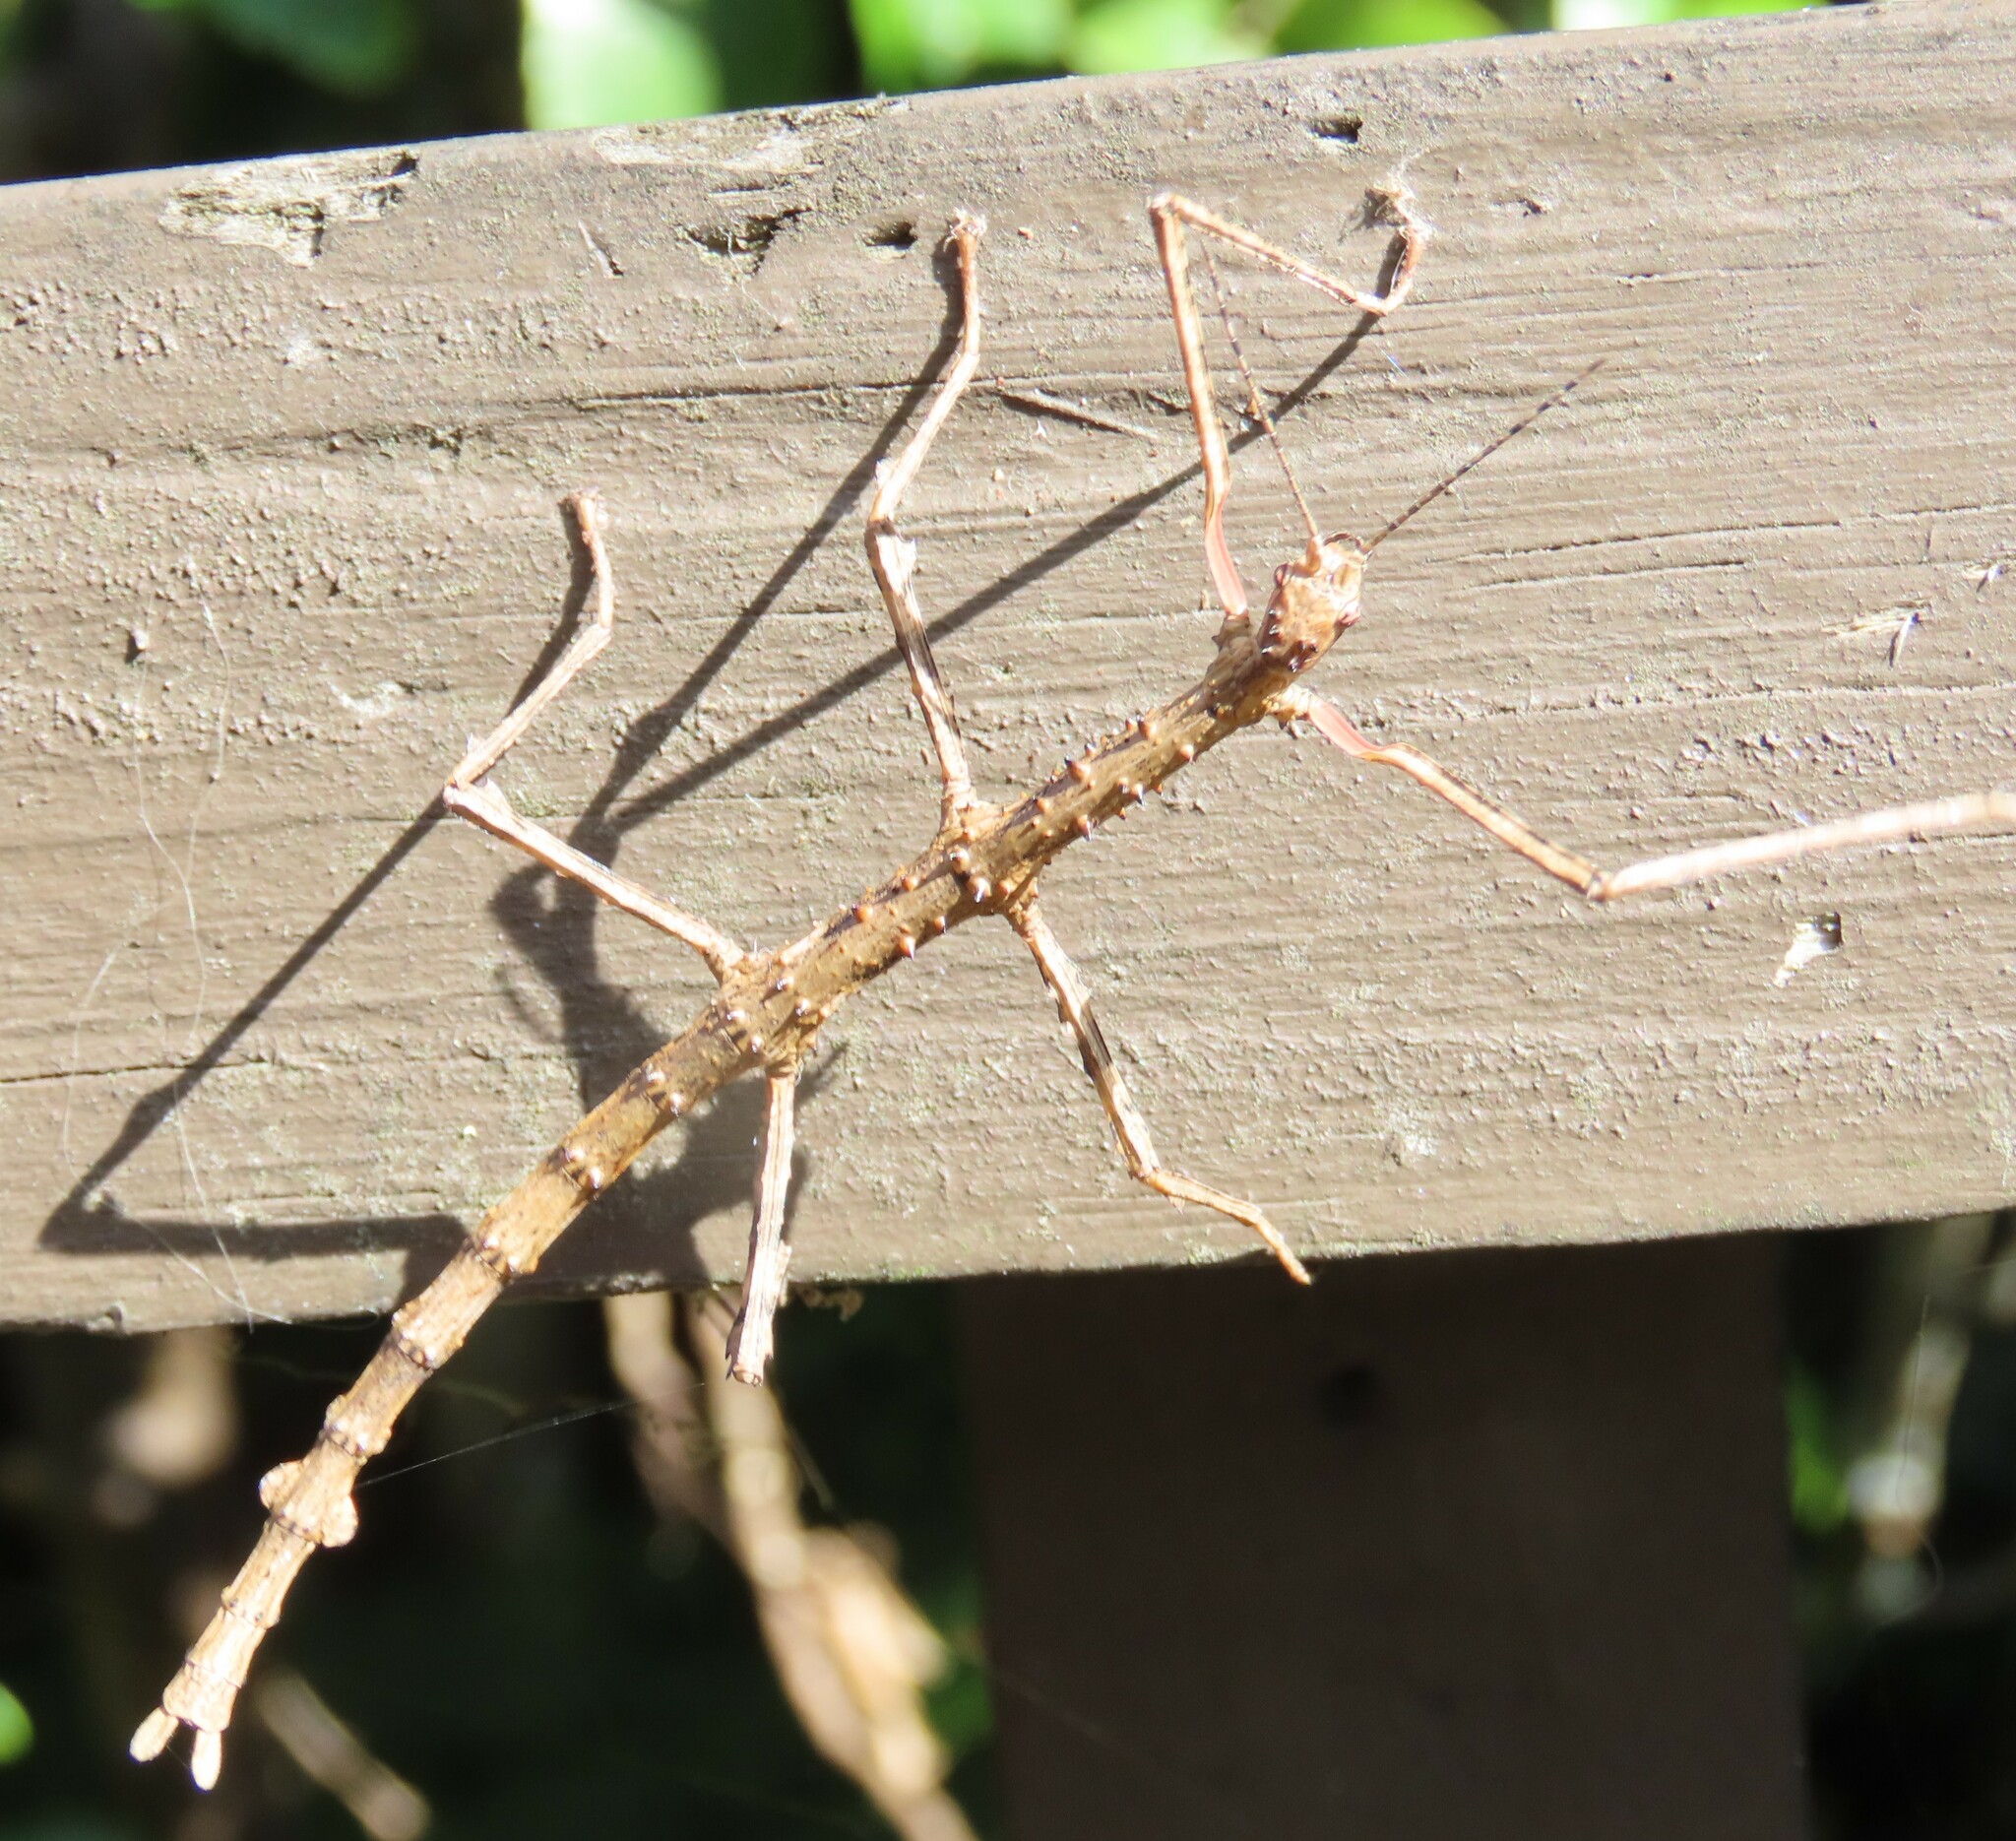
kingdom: Animalia
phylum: Arthropoda
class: Insecta
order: Phasmida
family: Phasmatidae
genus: Acanthoxyla
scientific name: Acanthoxyla prasina
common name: Black-spined stick insect
